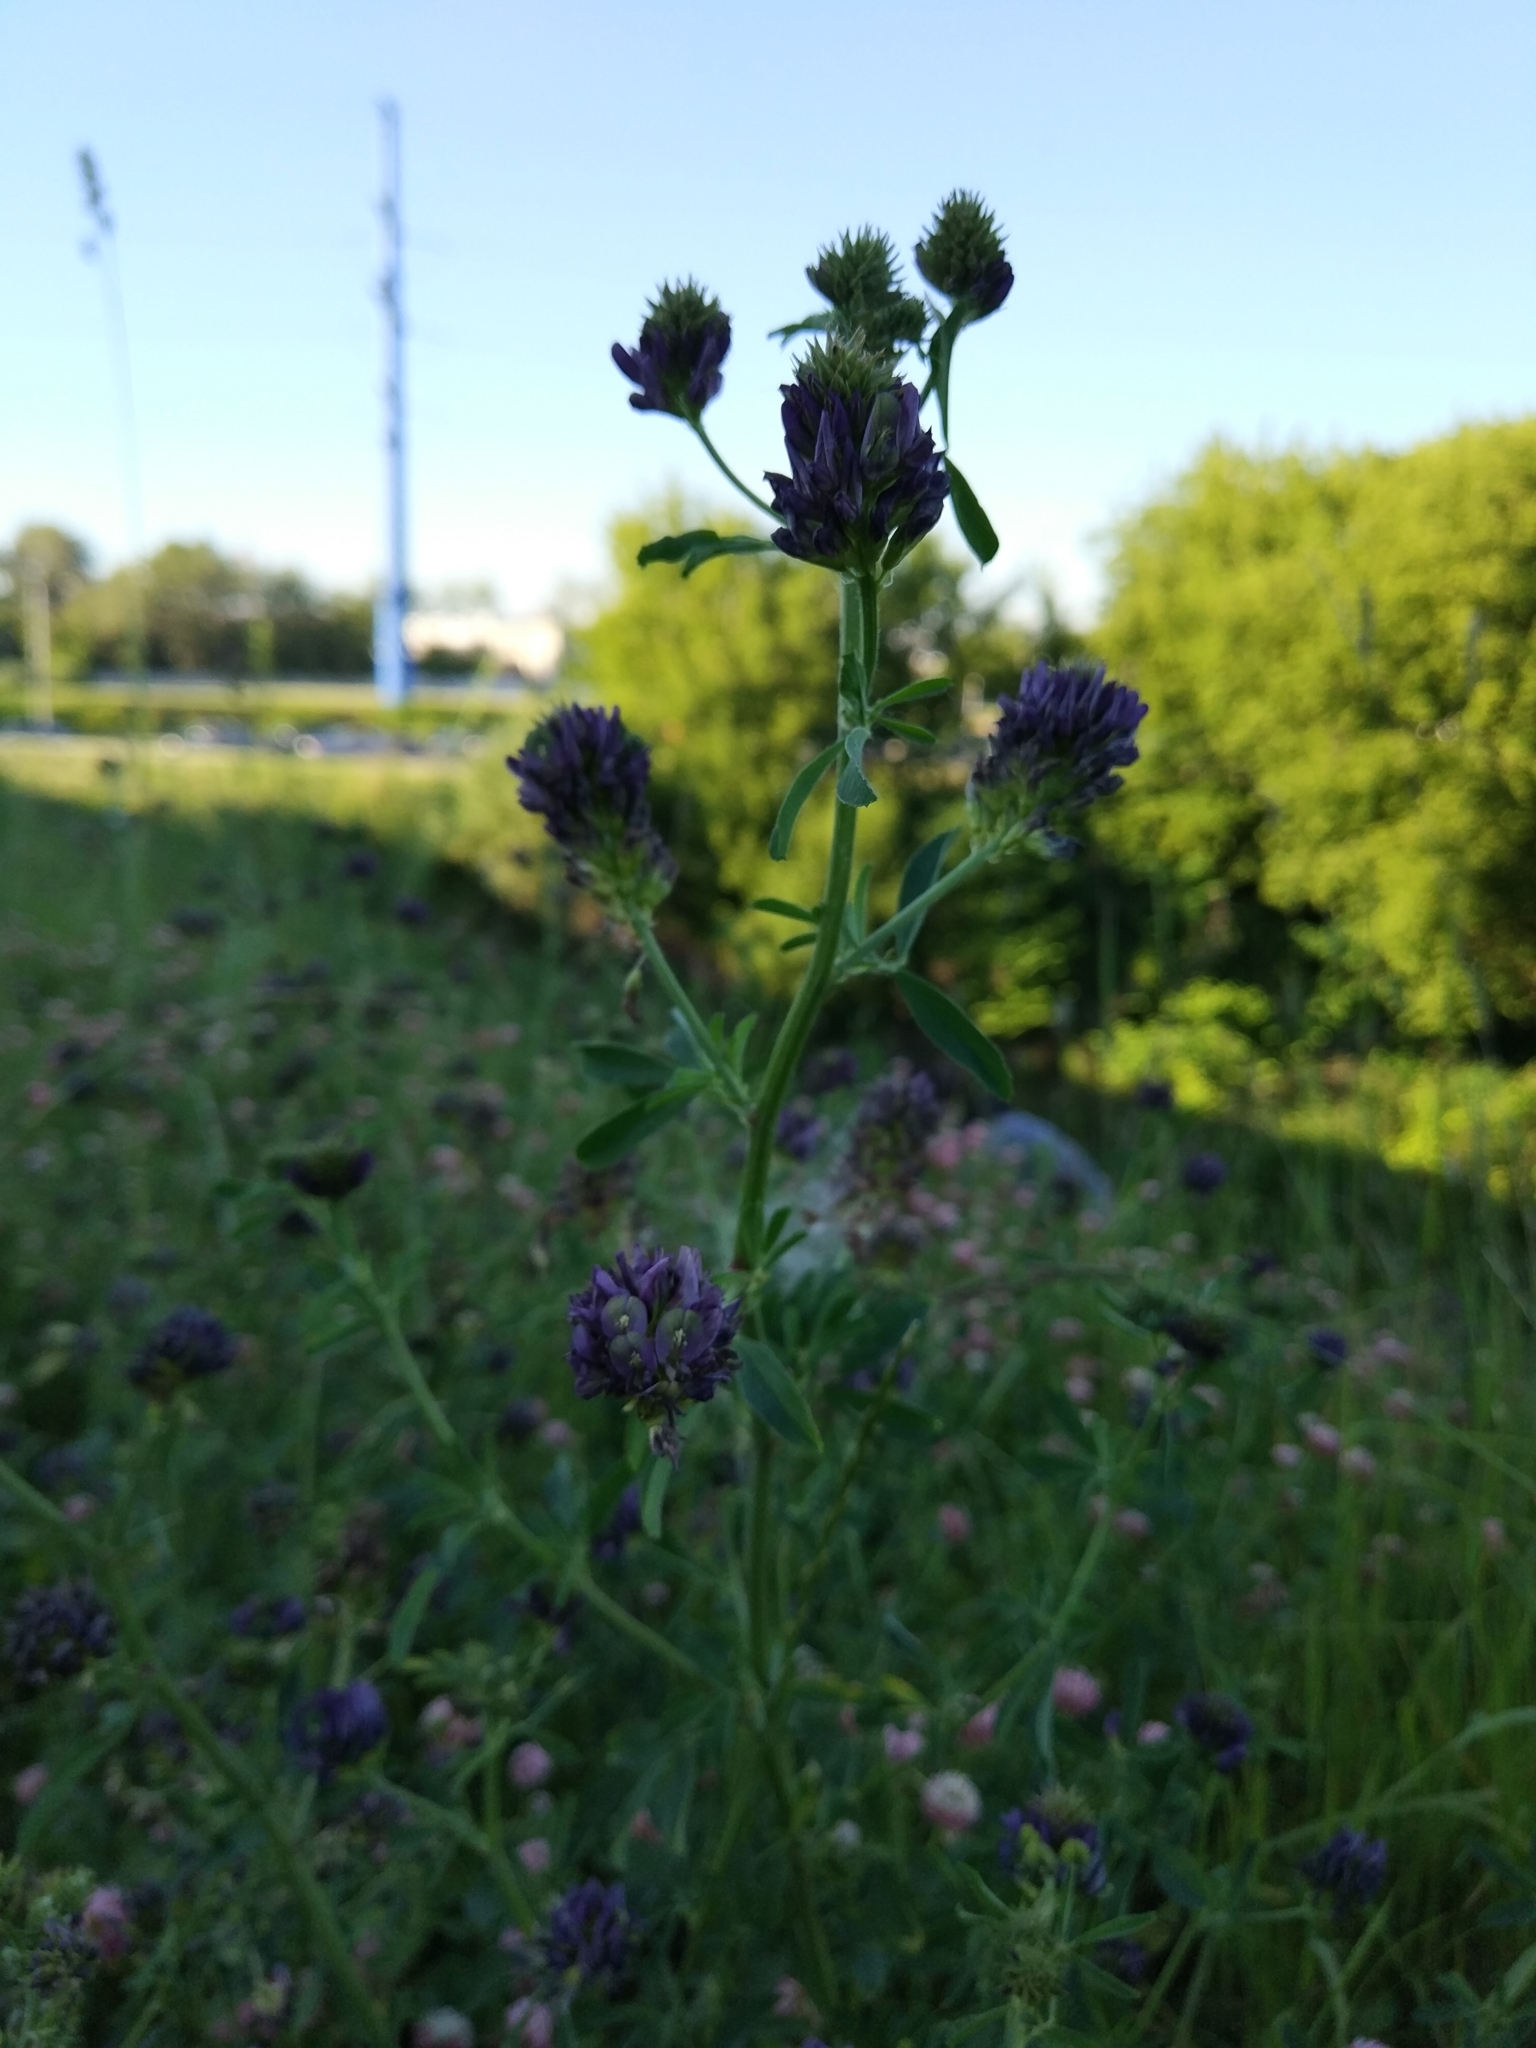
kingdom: Plantae
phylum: Tracheophyta
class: Magnoliopsida
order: Fabales
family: Fabaceae
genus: Medicago
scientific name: Medicago varia
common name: Sand lucerne
